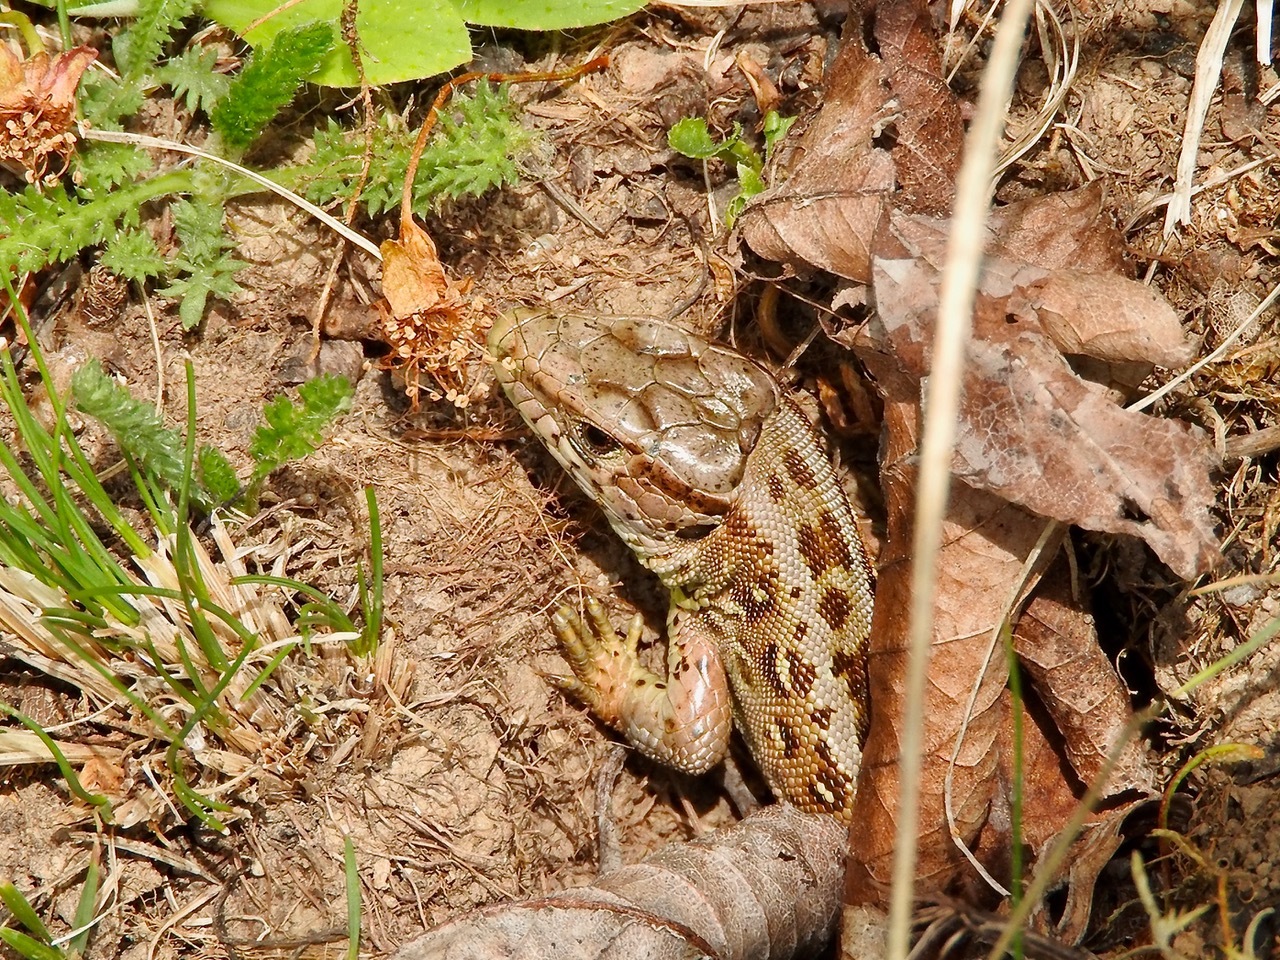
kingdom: Animalia
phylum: Chordata
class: Squamata
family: Lacertidae
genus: Lacerta
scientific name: Lacerta agilis
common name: Sand lizard
